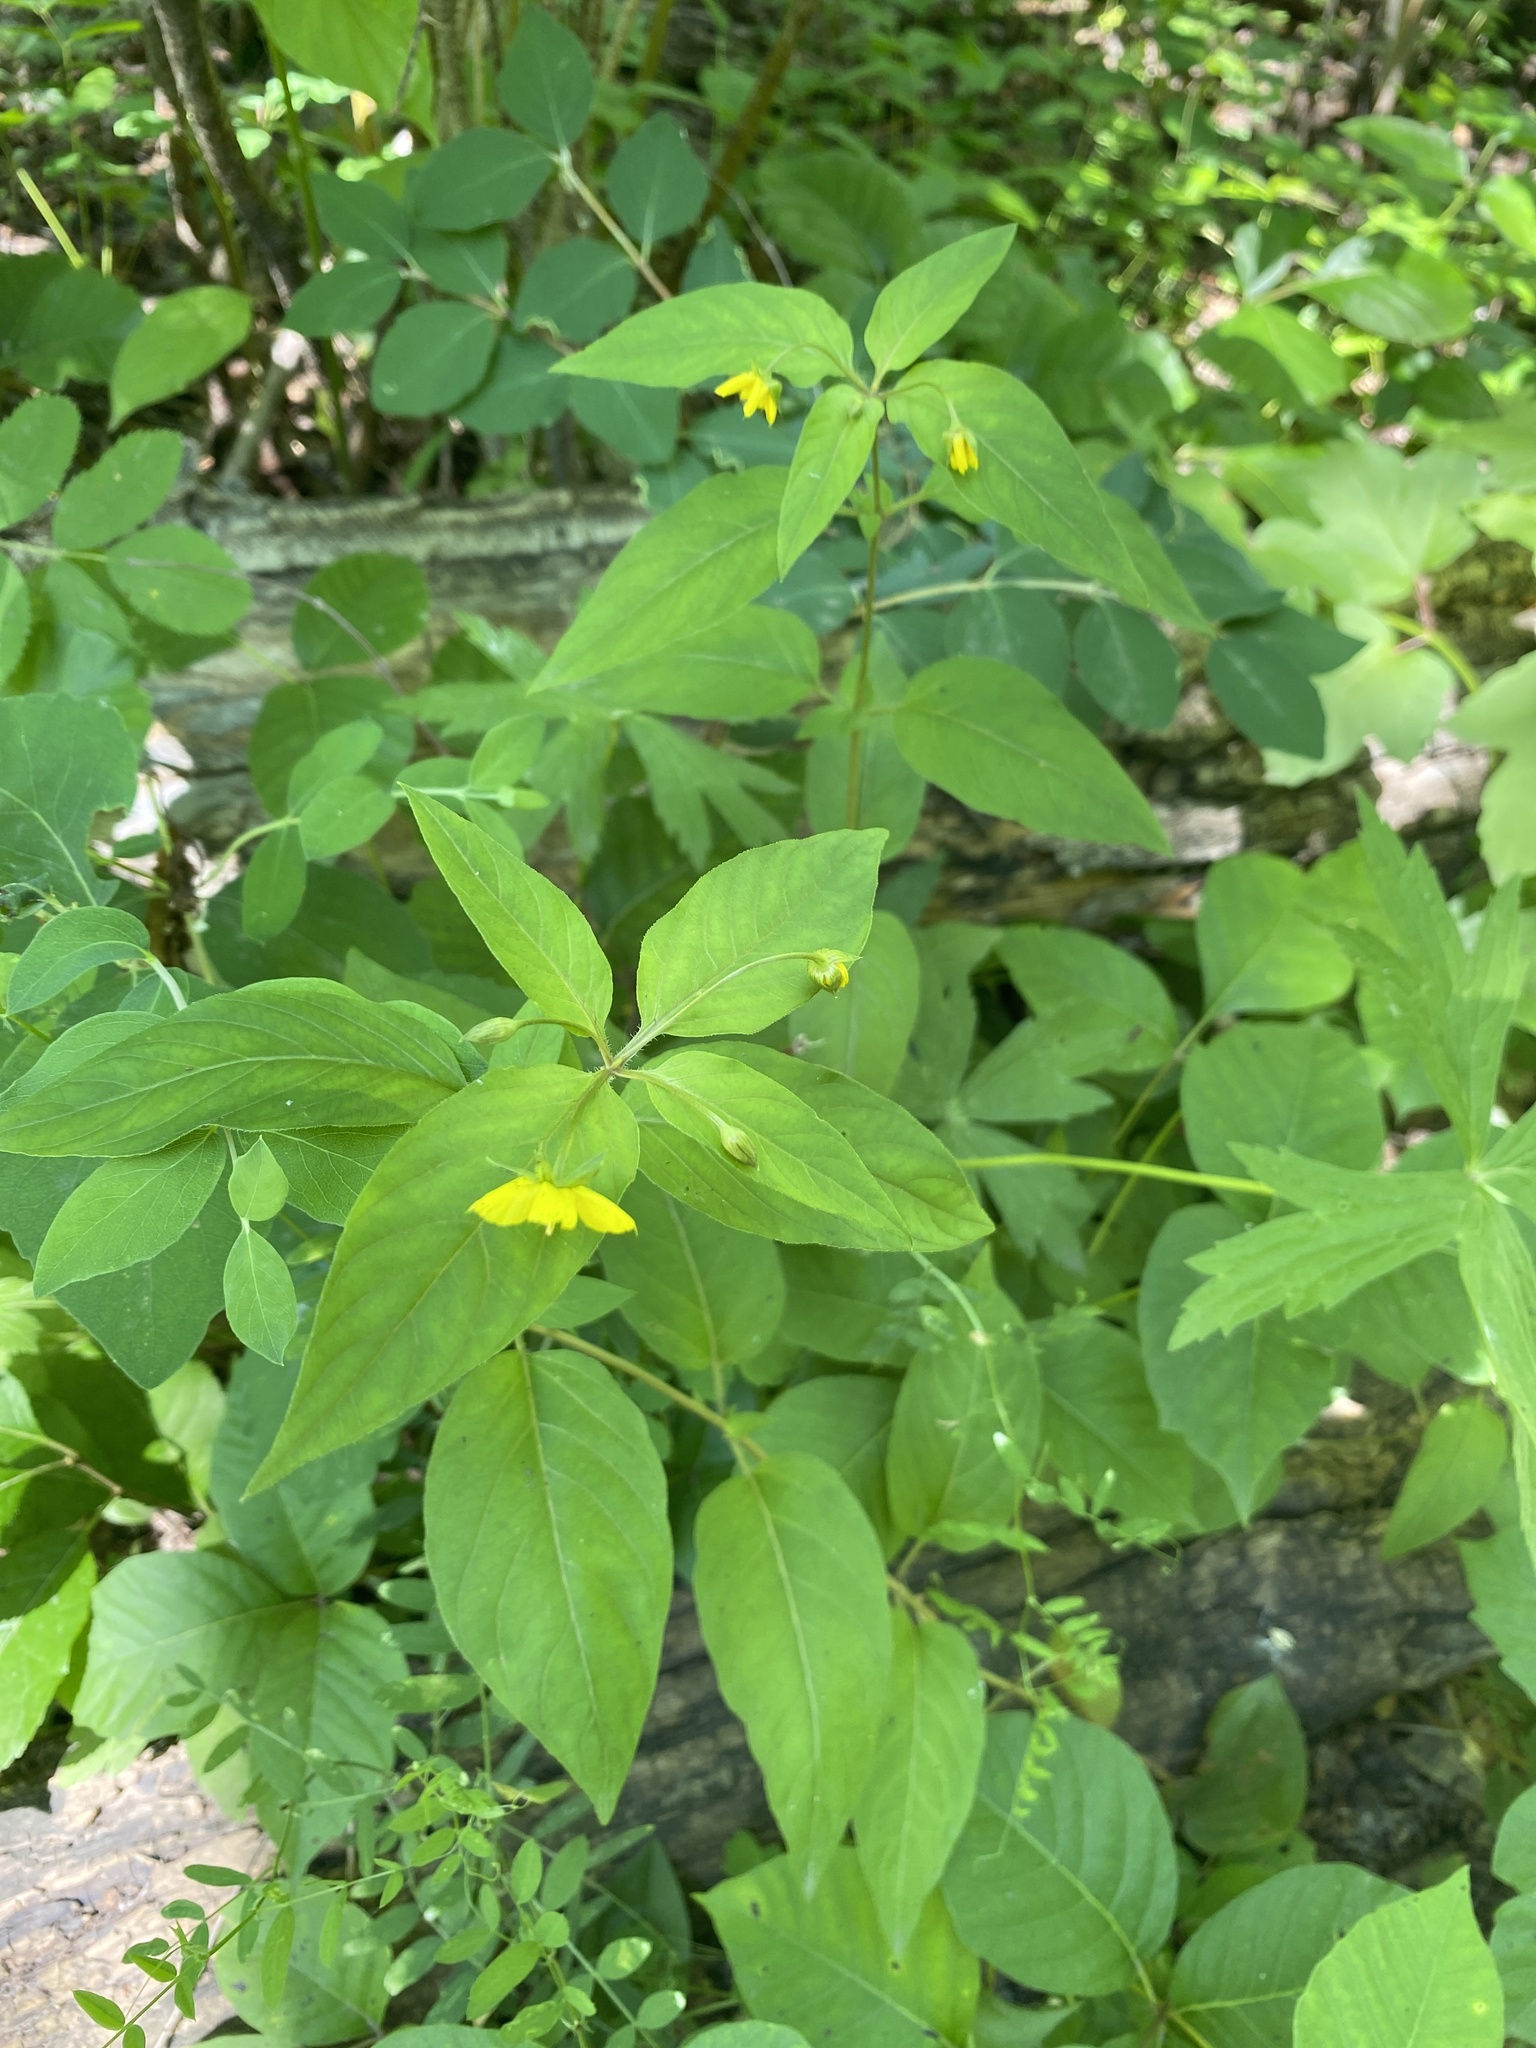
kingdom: Plantae
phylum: Tracheophyta
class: Magnoliopsida
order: Ericales
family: Primulaceae
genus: Lysimachia
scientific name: Lysimachia ciliata
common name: Fringed loosestrife
